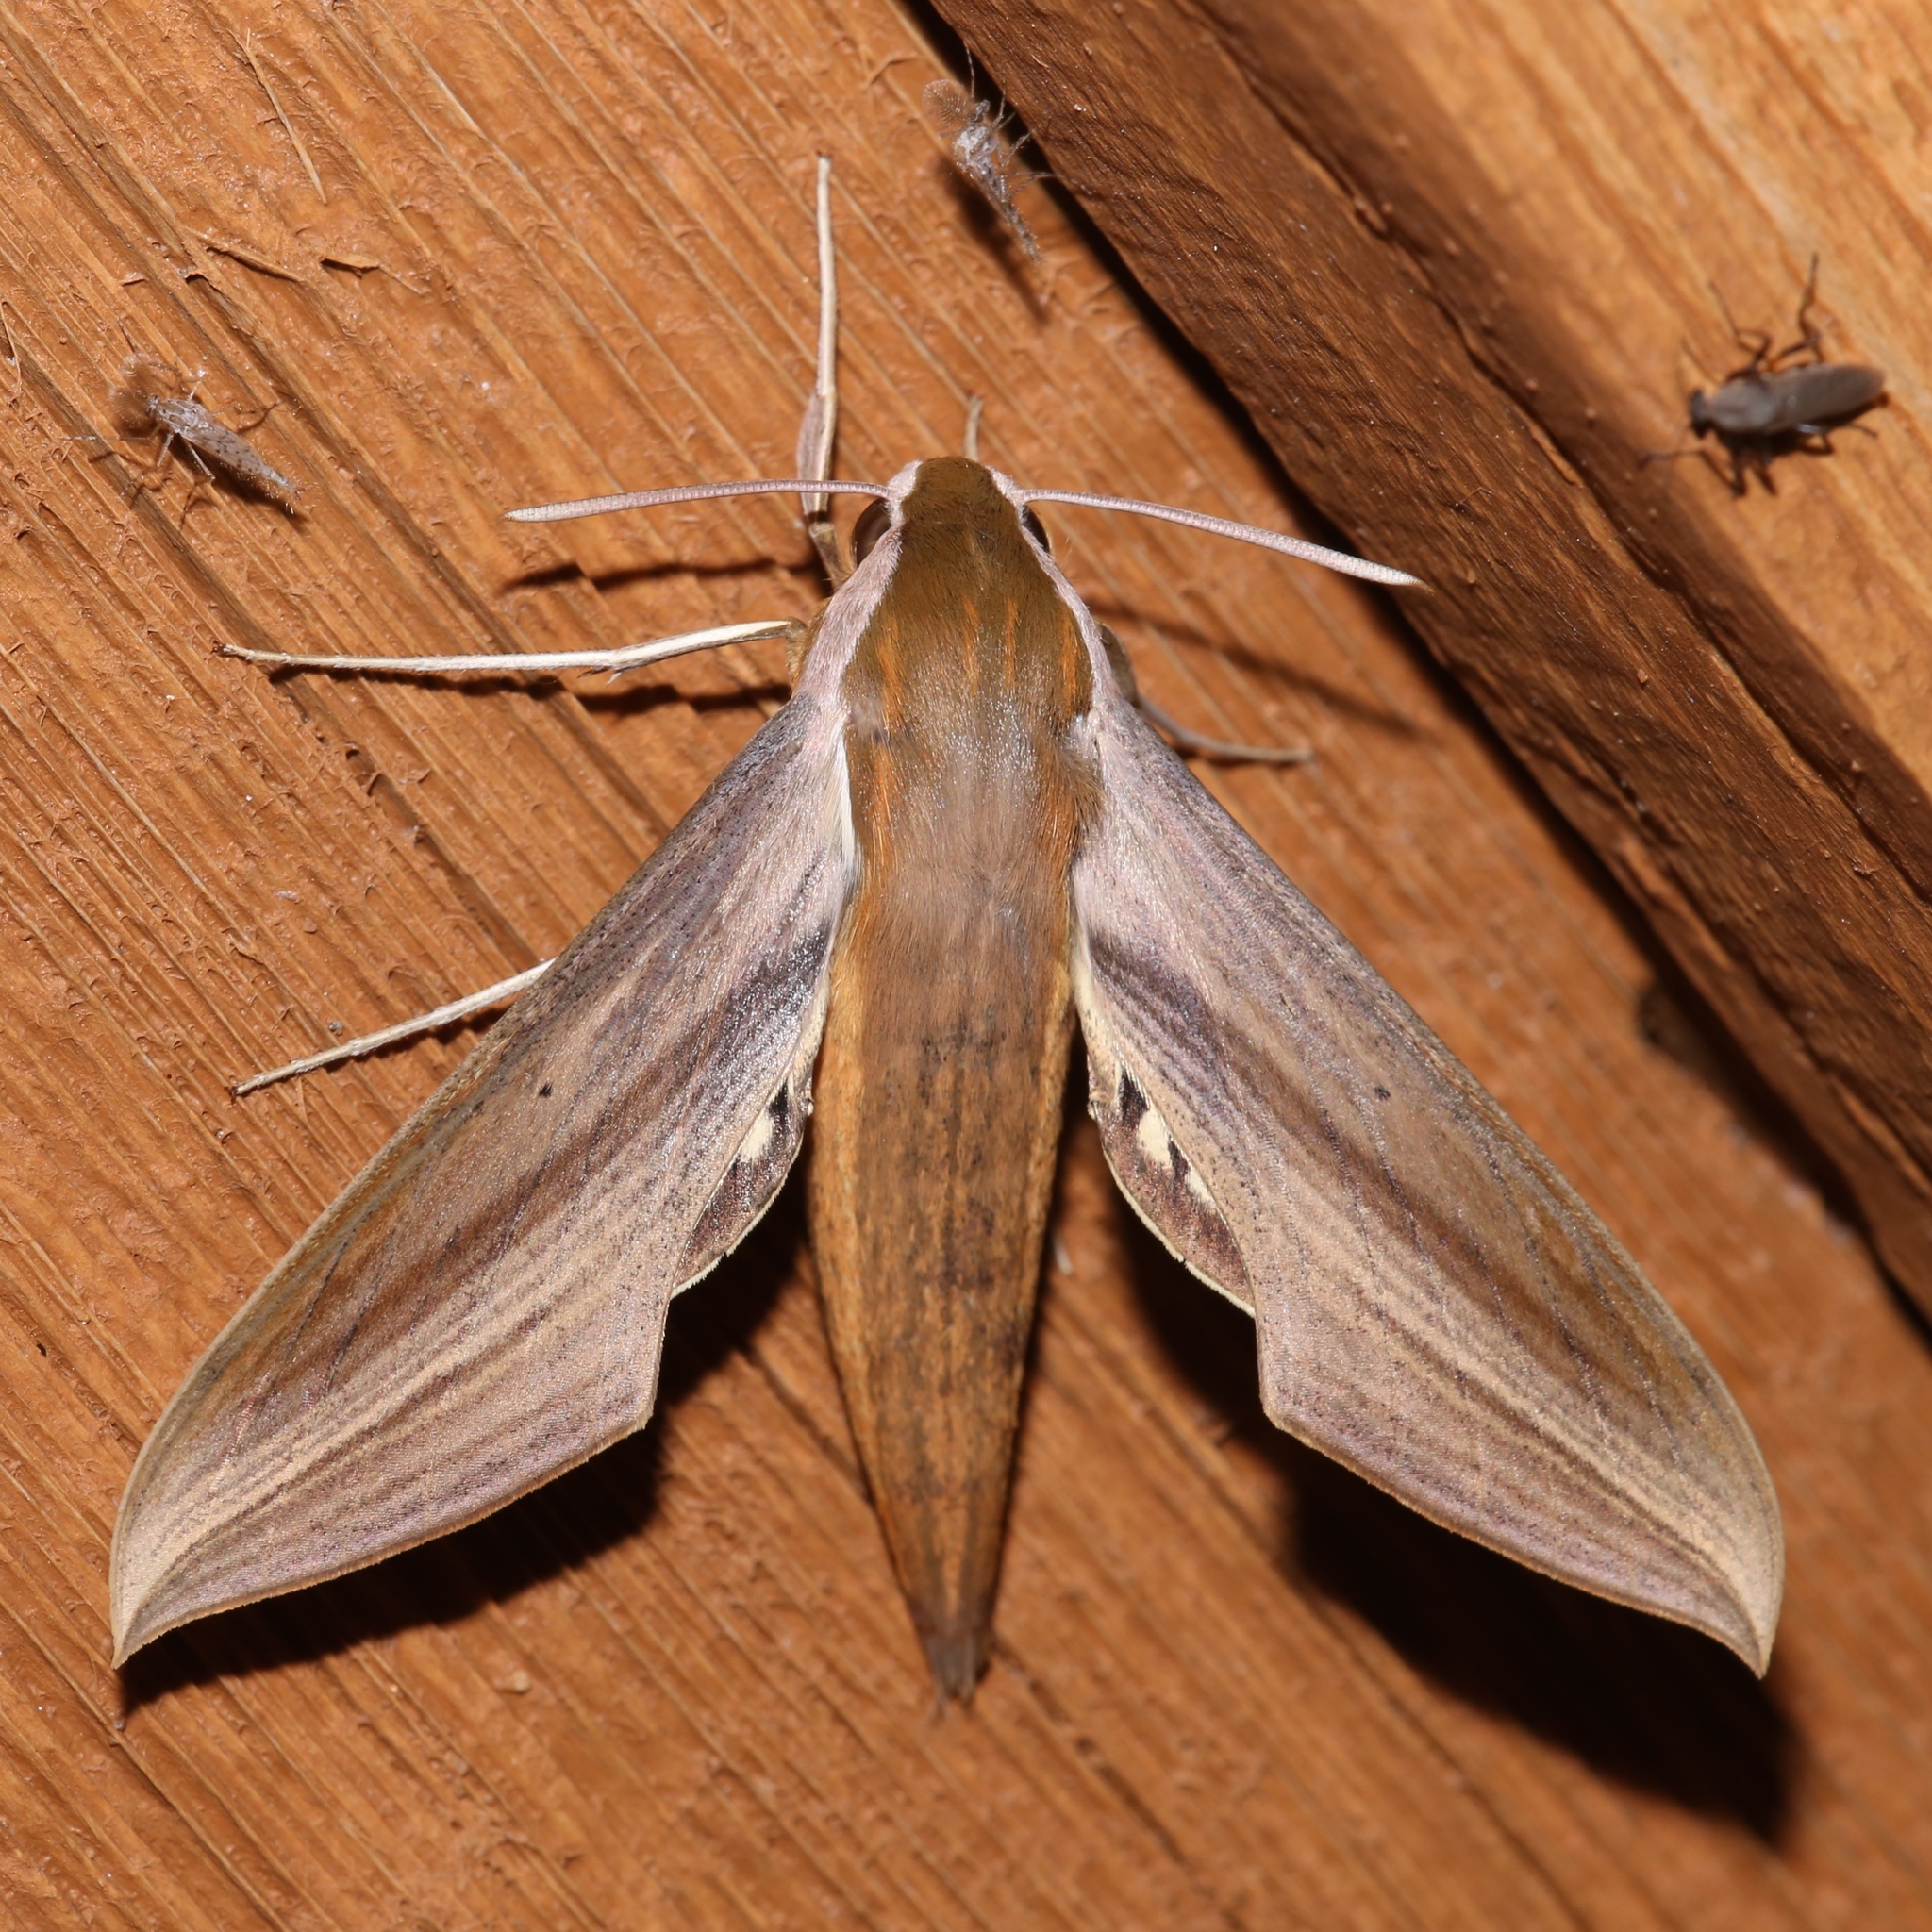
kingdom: Animalia
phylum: Arthropoda
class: Insecta
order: Lepidoptera
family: Sphingidae
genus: Xylophanes
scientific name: Xylophanes tersa
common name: Tersa sphinx
